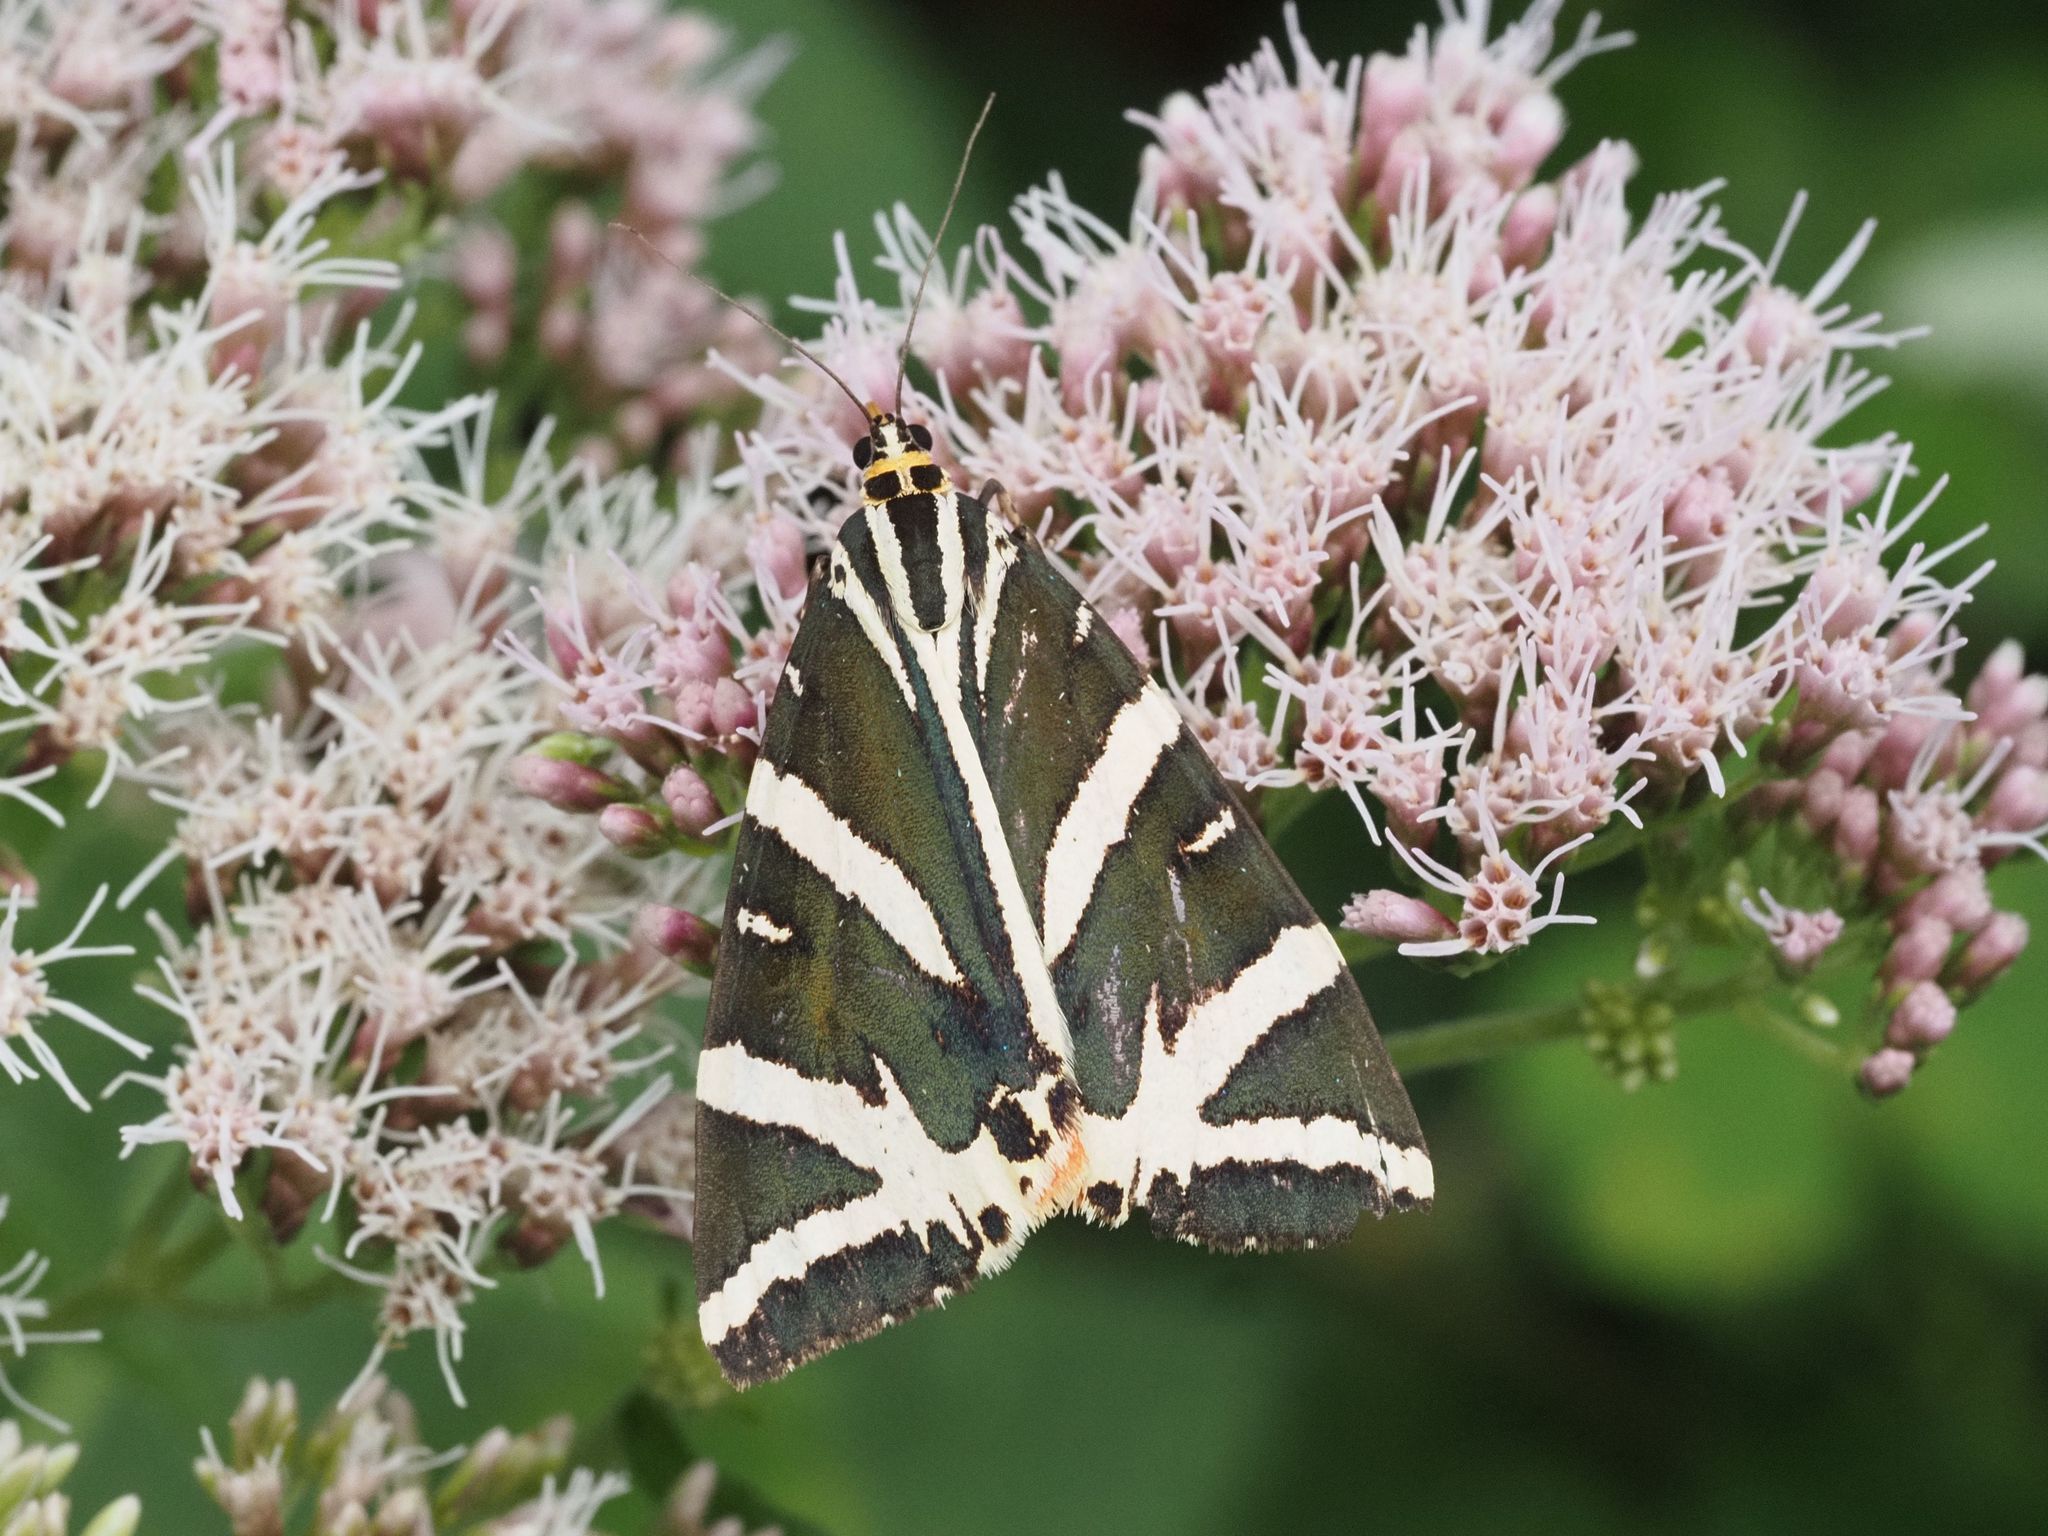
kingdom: Animalia
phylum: Arthropoda
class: Insecta
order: Lepidoptera
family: Erebidae
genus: Euplagia
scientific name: Euplagia quadripunctaria
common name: Jersey tiger
